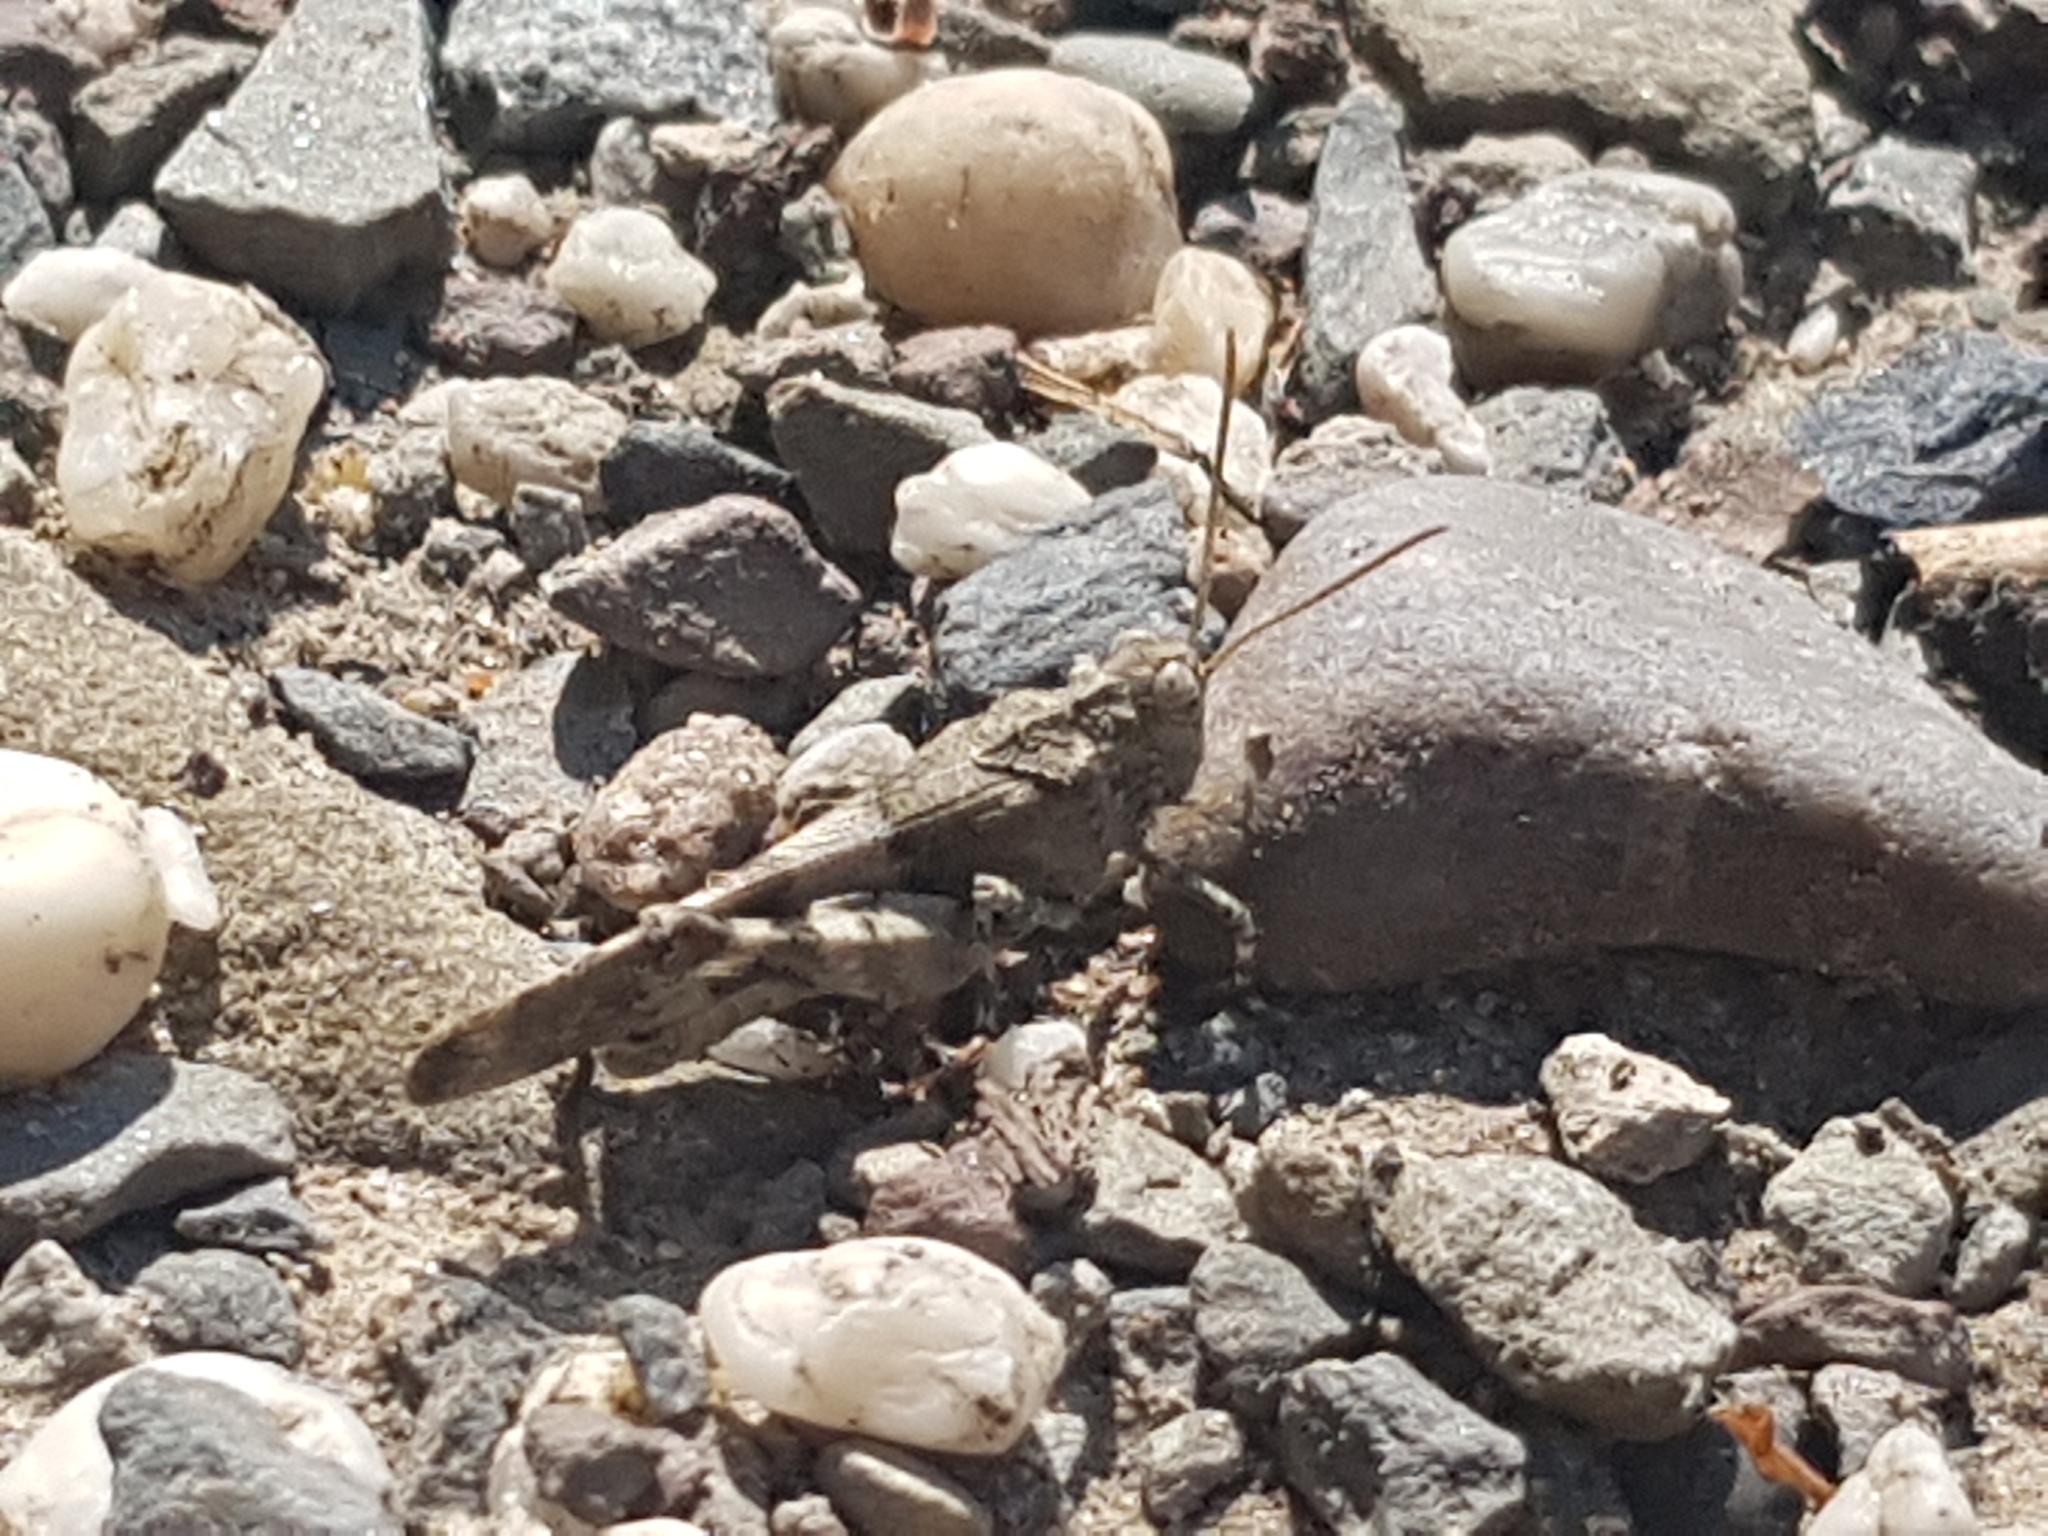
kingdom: Animalia
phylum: Arthropoda
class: Insecta
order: Orthoptera
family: Acrididae
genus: Oedipoda
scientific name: Oedipoda caerulescens
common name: Blue-winged grasshopper
